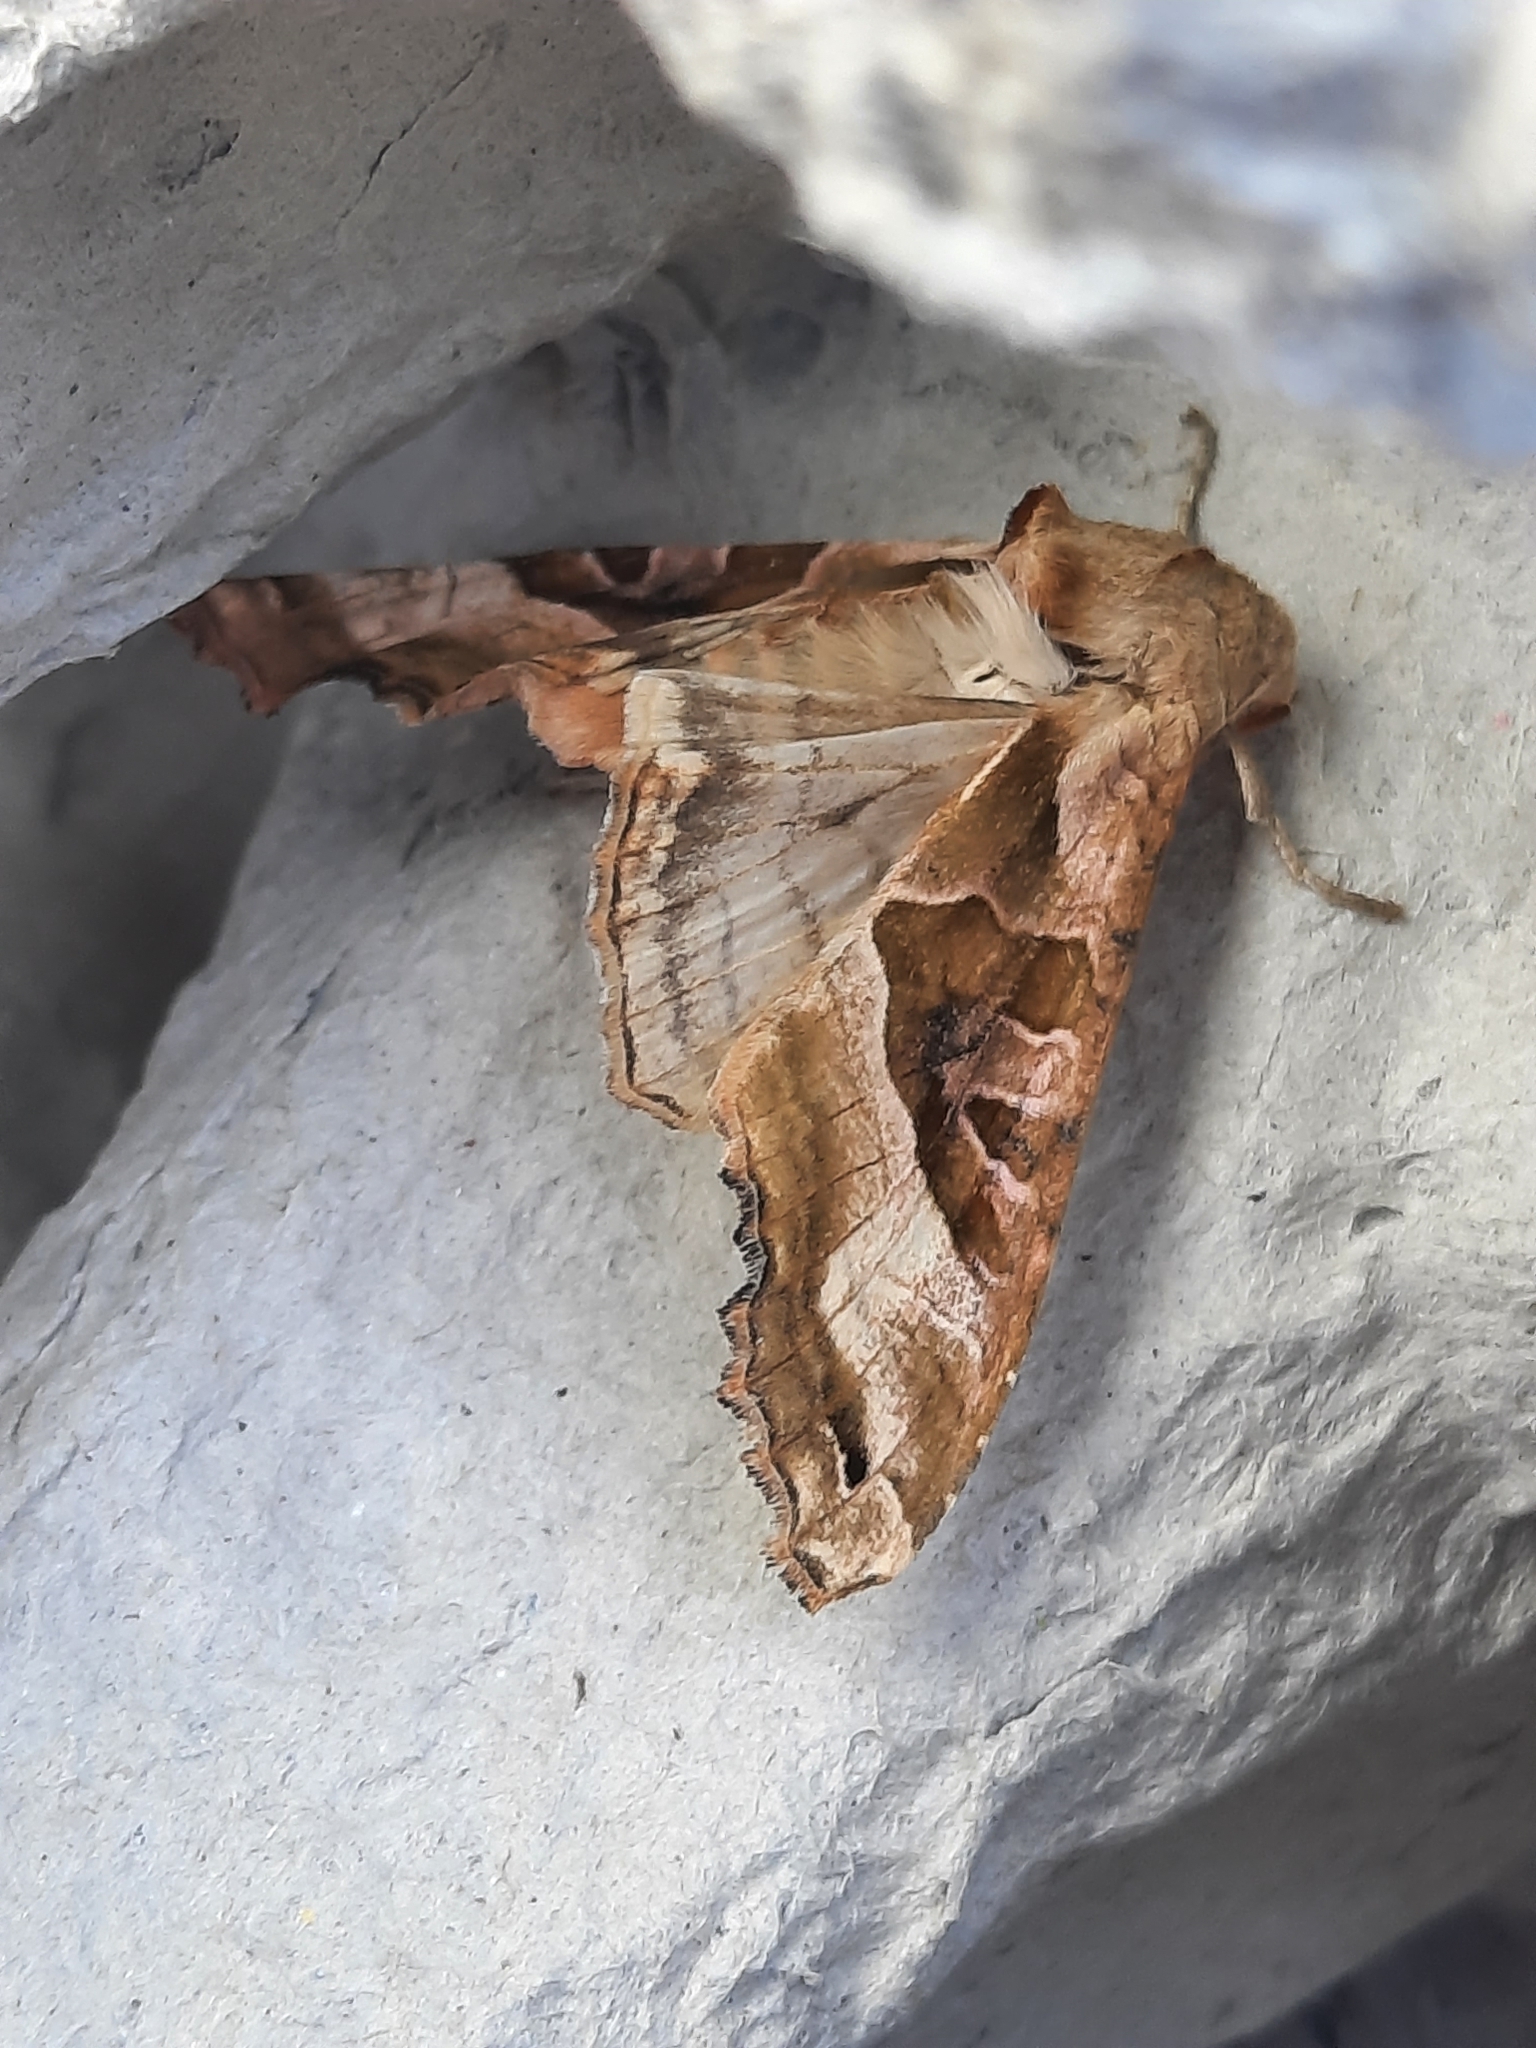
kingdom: Animalia
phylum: Arthropoda
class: Insecta
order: Lepidoptera
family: Noctuidae
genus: Phlogophora
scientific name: Phlogophora meticulosa
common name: Angle shades
